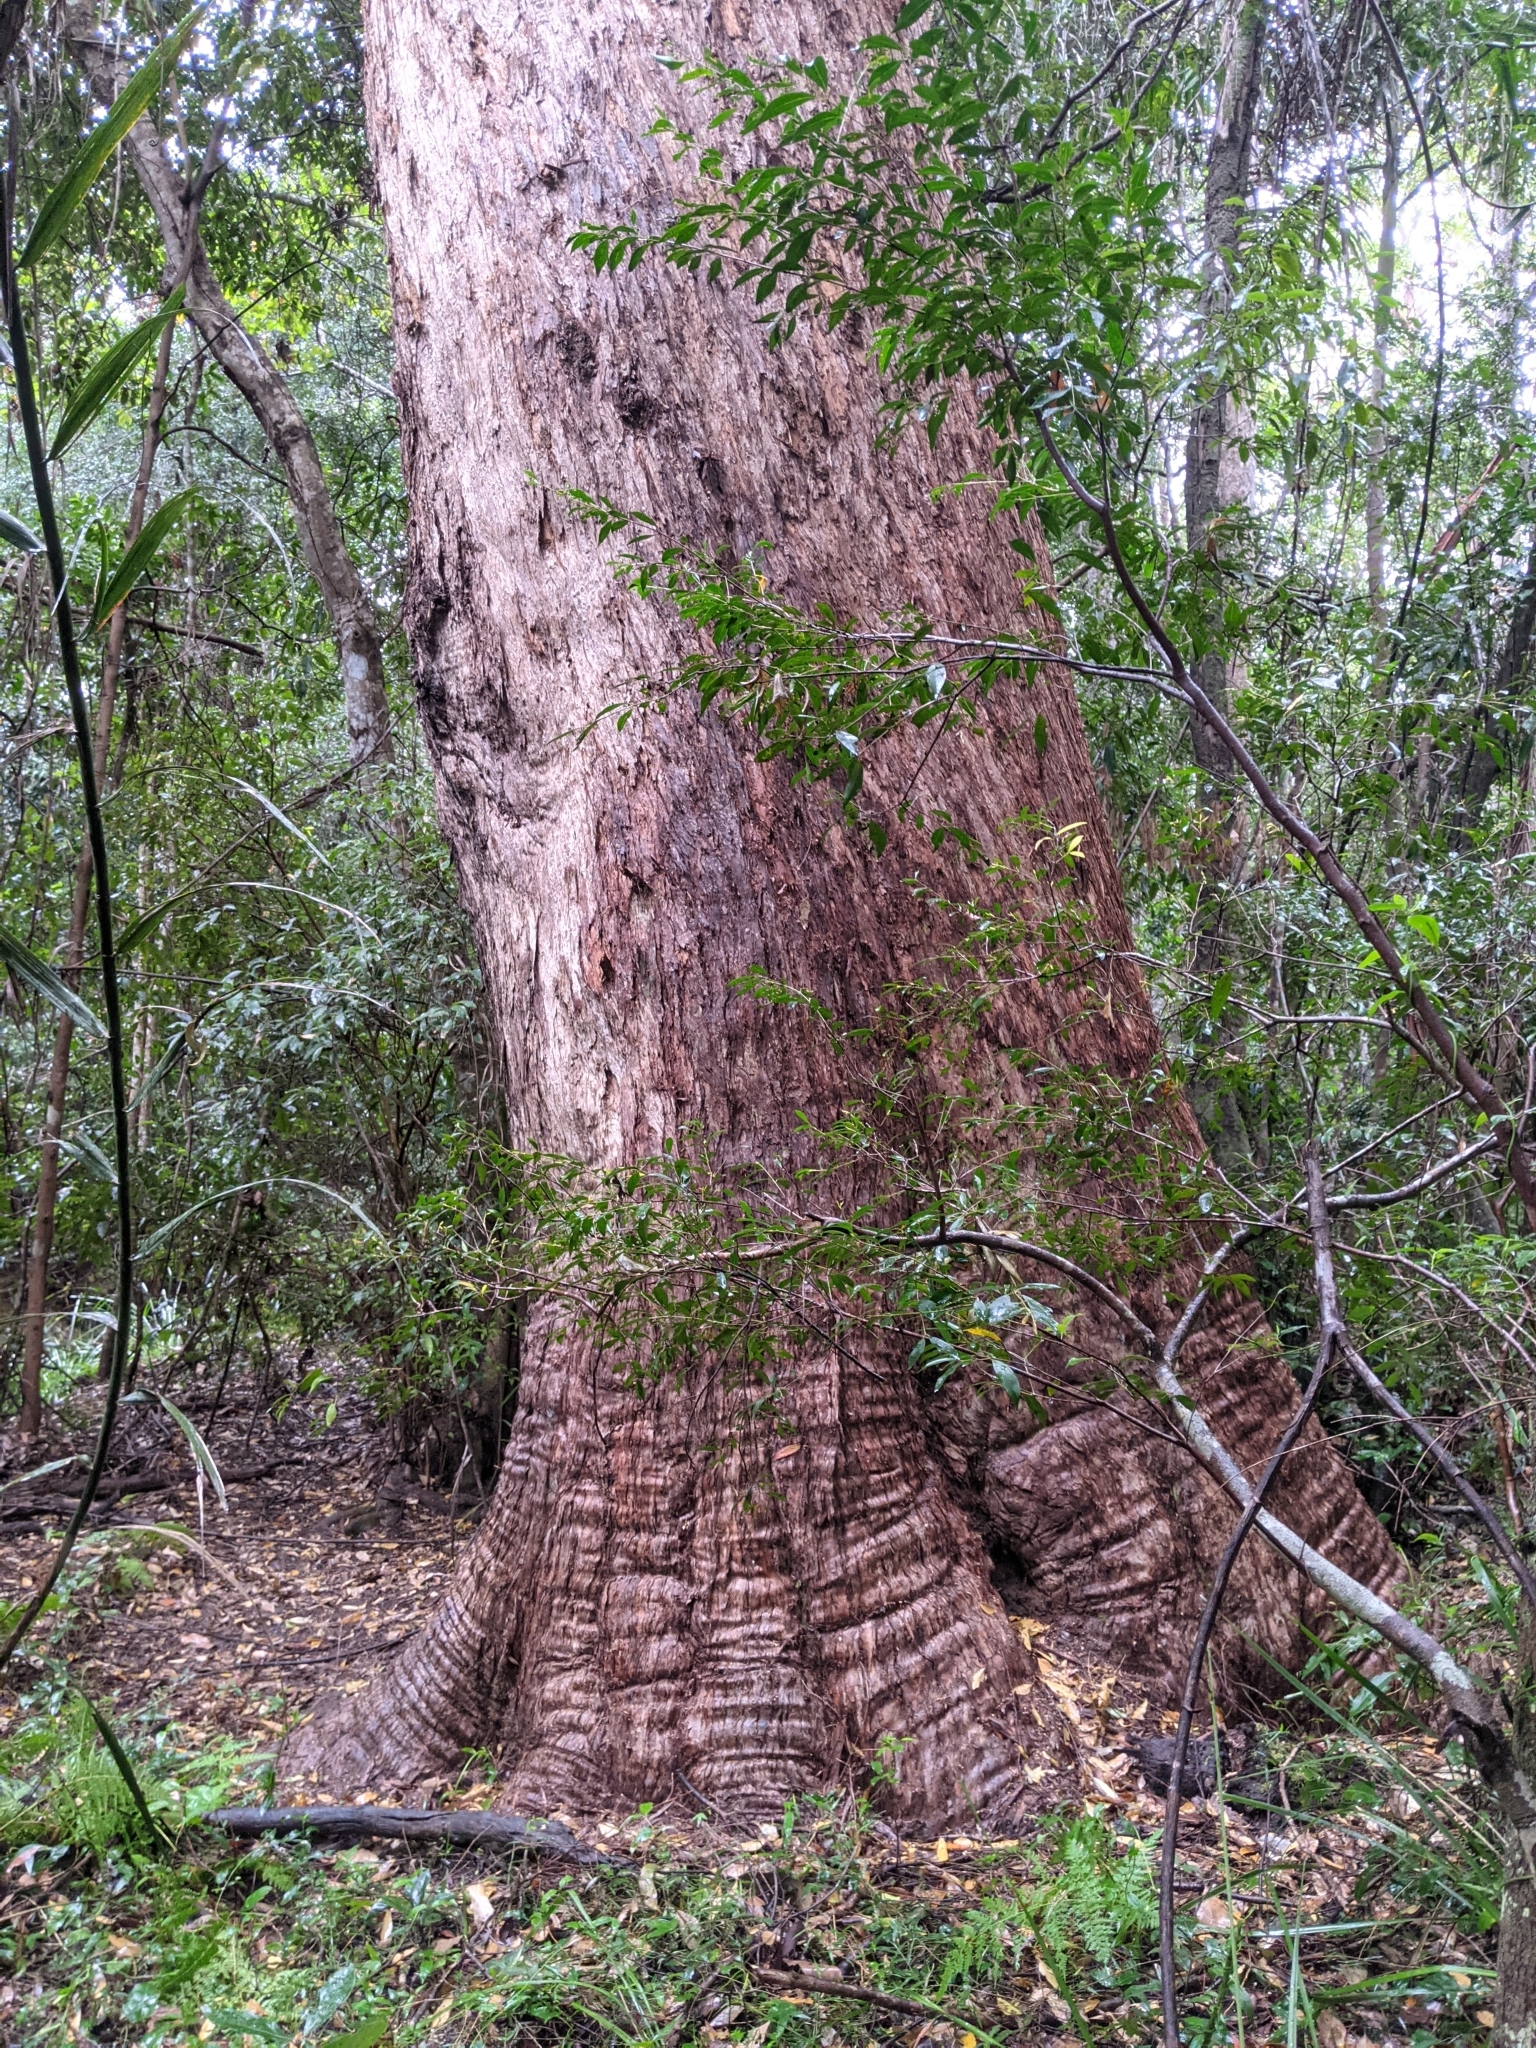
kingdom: Plantae
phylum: Tracheophyta
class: Magnoliopsida
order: Myrtales
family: Myrtaceae
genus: Eucalyptus
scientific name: Eucalyptus microcorys
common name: Tallowwood
